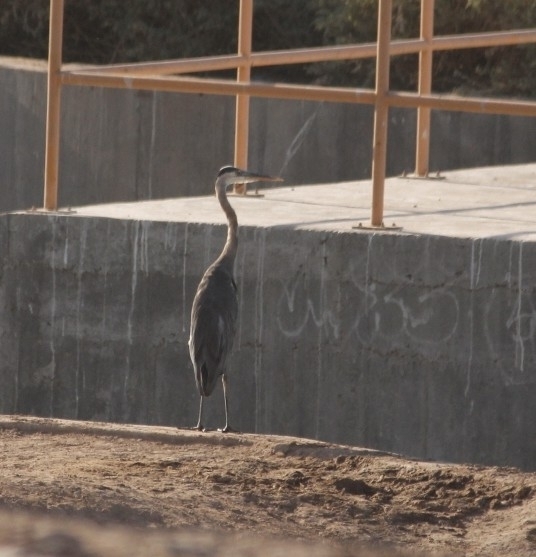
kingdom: Animalia
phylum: Chordata
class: Aves
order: Pelecaniformes
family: Ardeidae
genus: Ardea
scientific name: Ardea herodias
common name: Great blue heron
